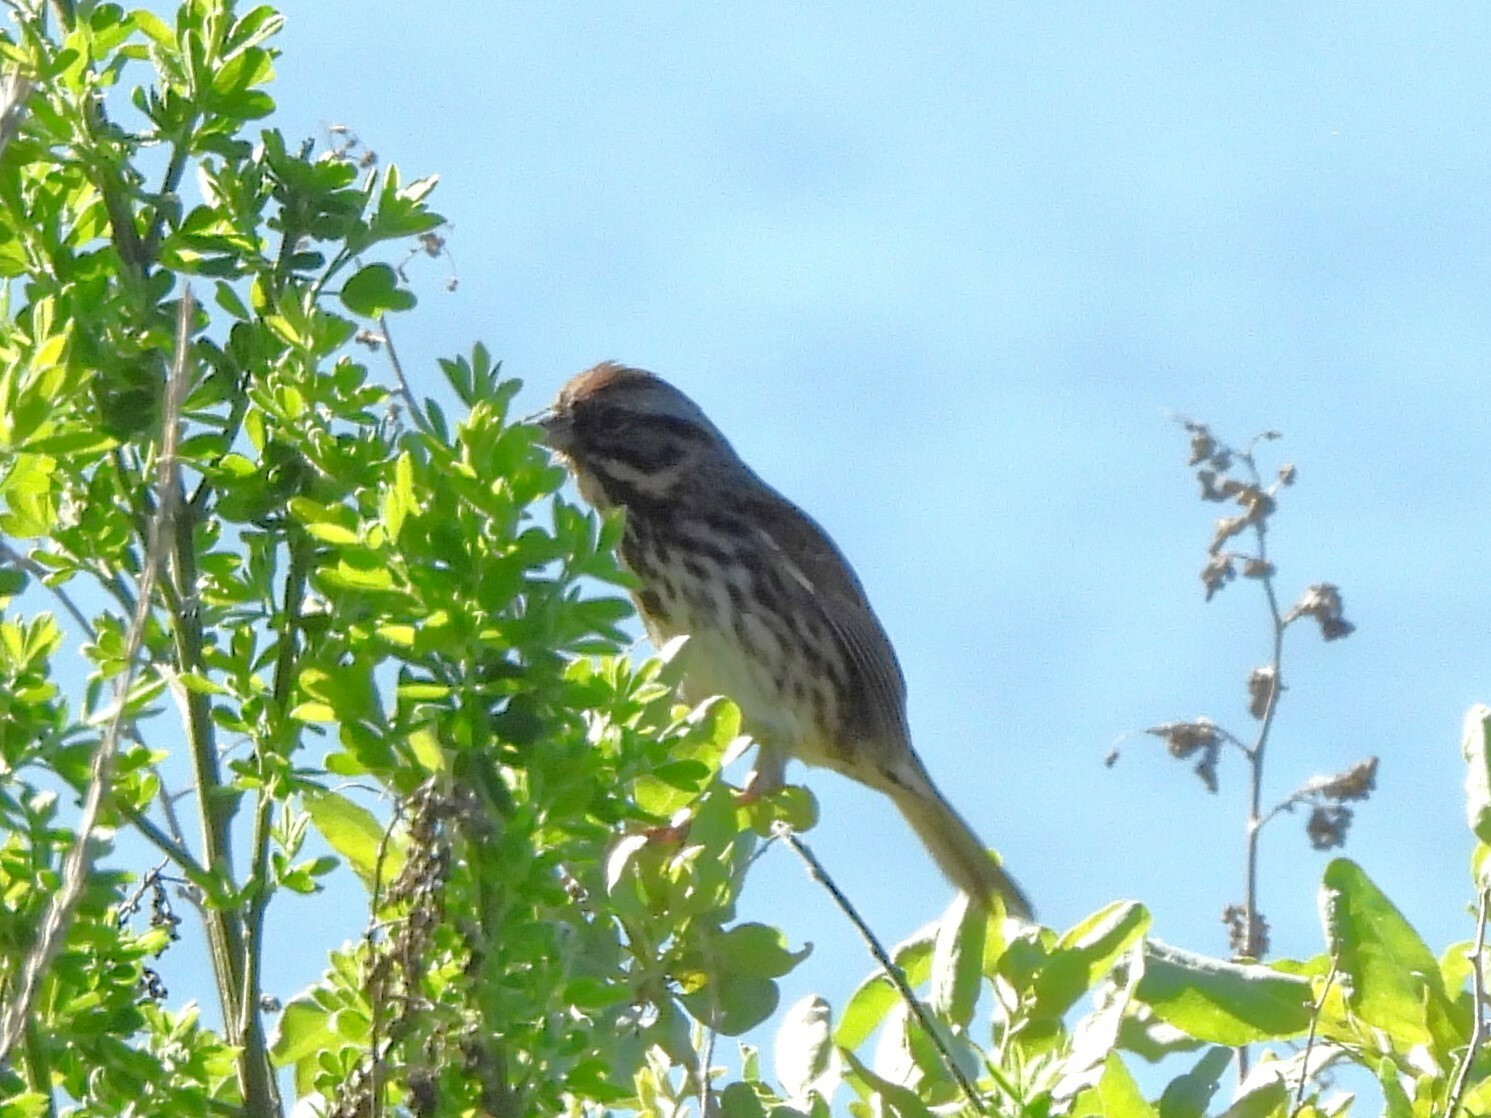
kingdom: Animalia
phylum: Chordata
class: Aves
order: Passeriformes
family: Passerellidae
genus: Melospiza
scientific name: Melospiza melodia
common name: Song sparrow
